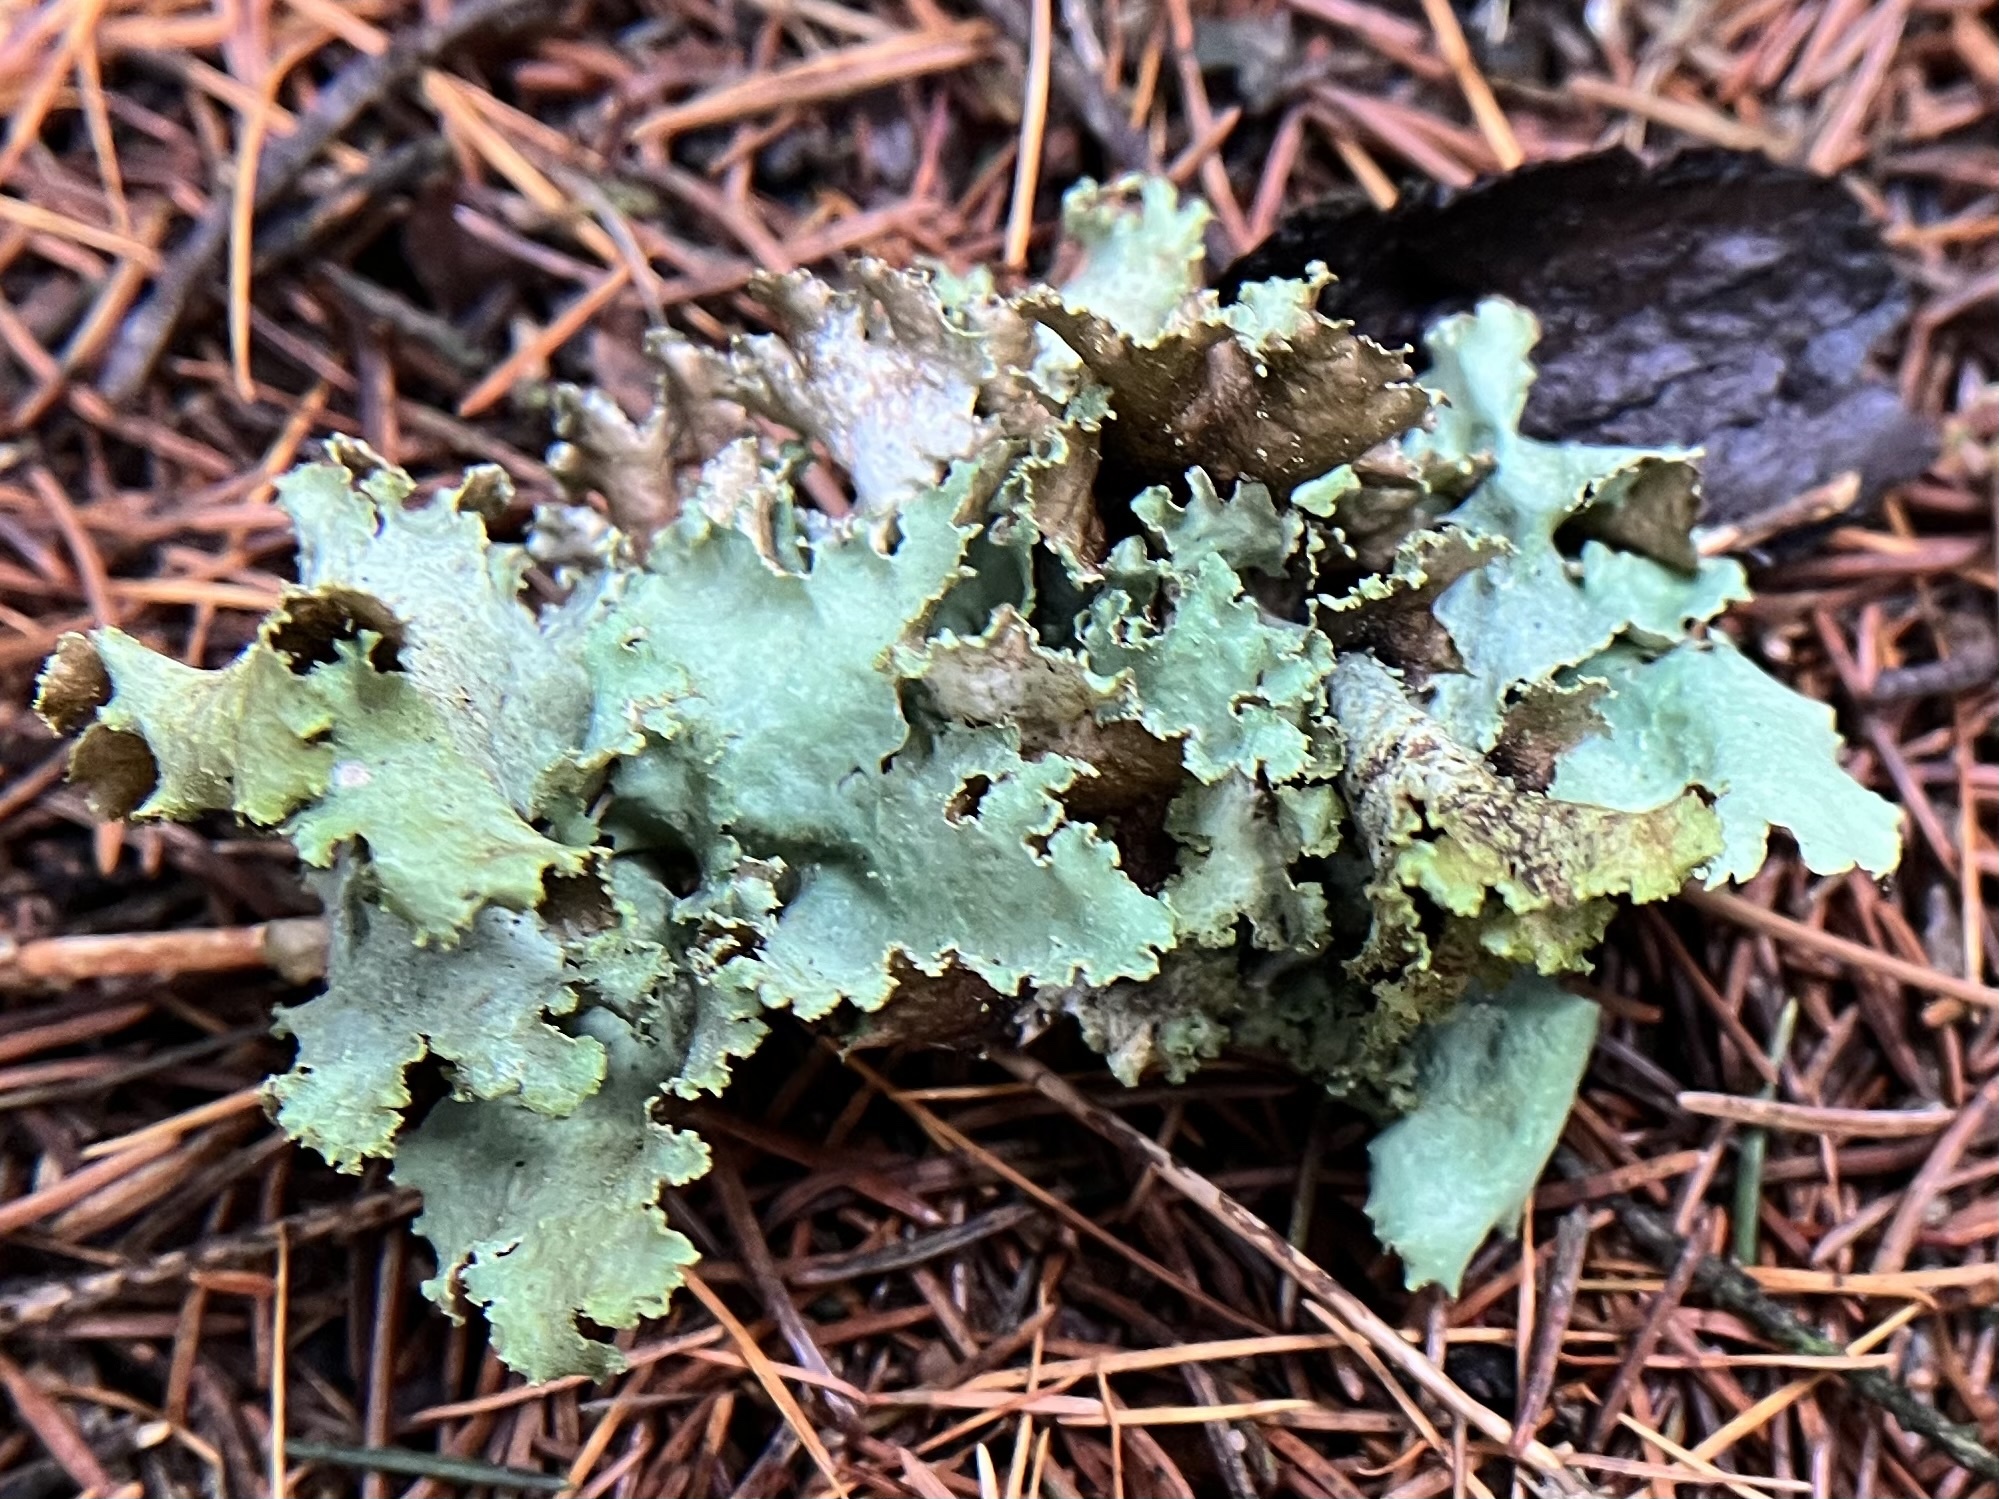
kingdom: Fungi
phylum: Ascomycota
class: Lecanoromycetes
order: Lecanorales
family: Parmeliaceae
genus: Platismatia
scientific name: Platismatia glauca
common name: Varied rag lichen
